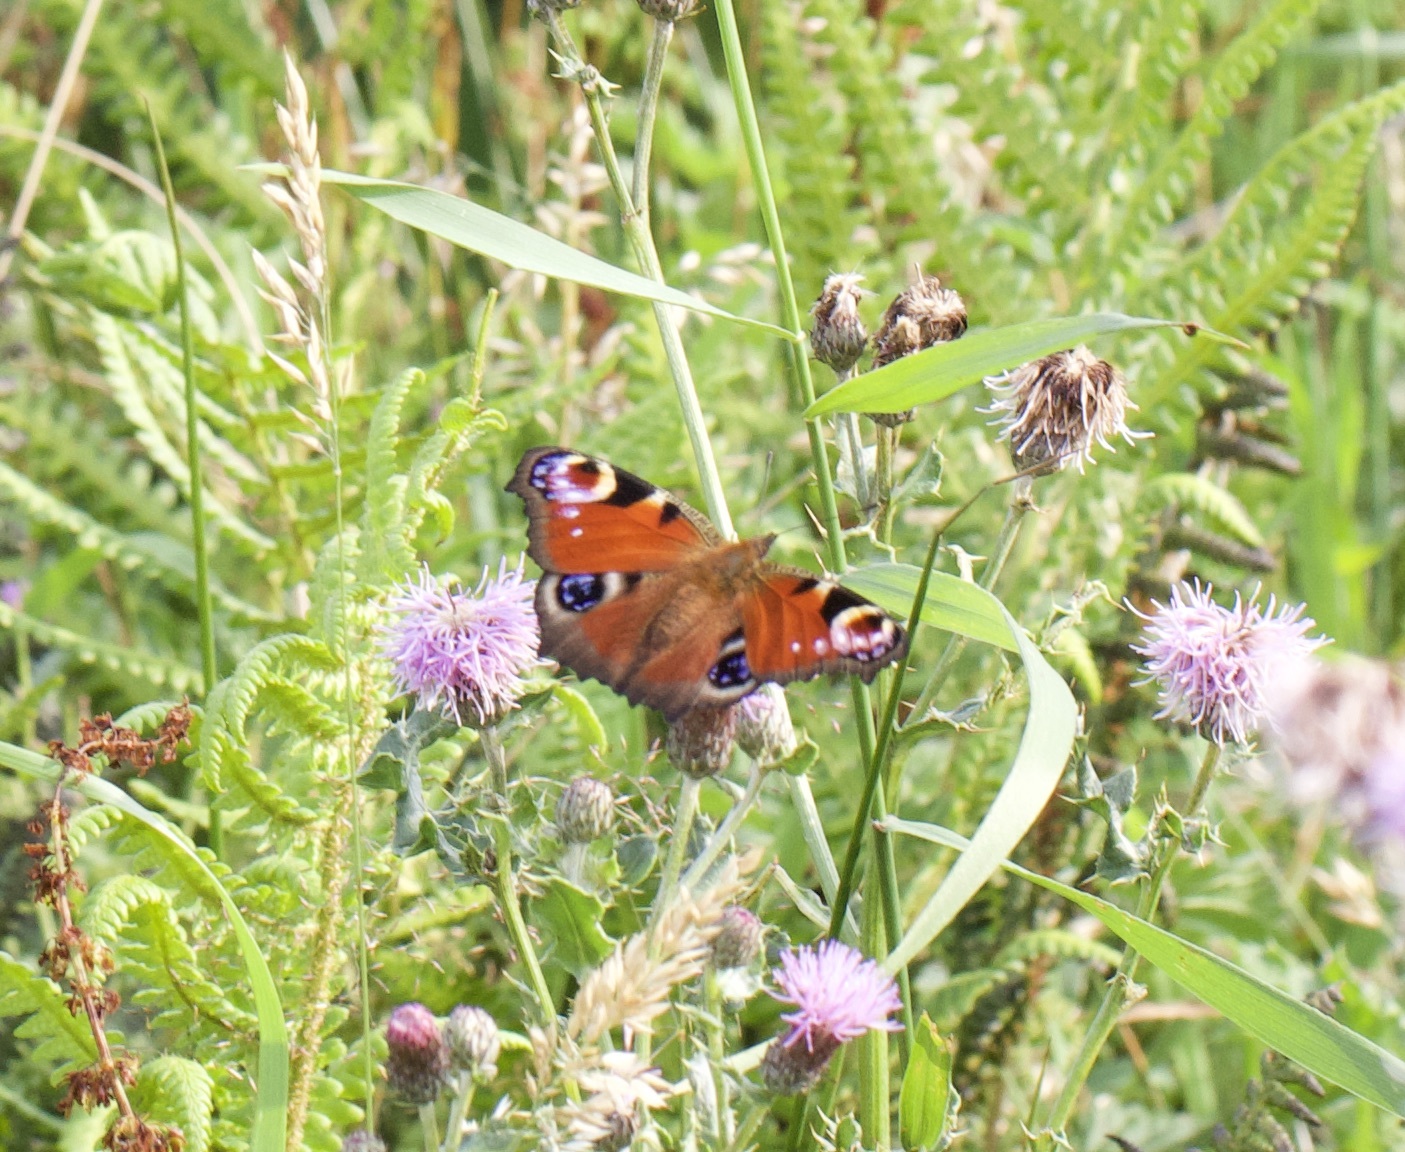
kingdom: Animalia
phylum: Arthropoda
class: Insecta
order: Lepidoptera
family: Nymphalidae
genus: Aglais
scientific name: Aglais io
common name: Peacock
